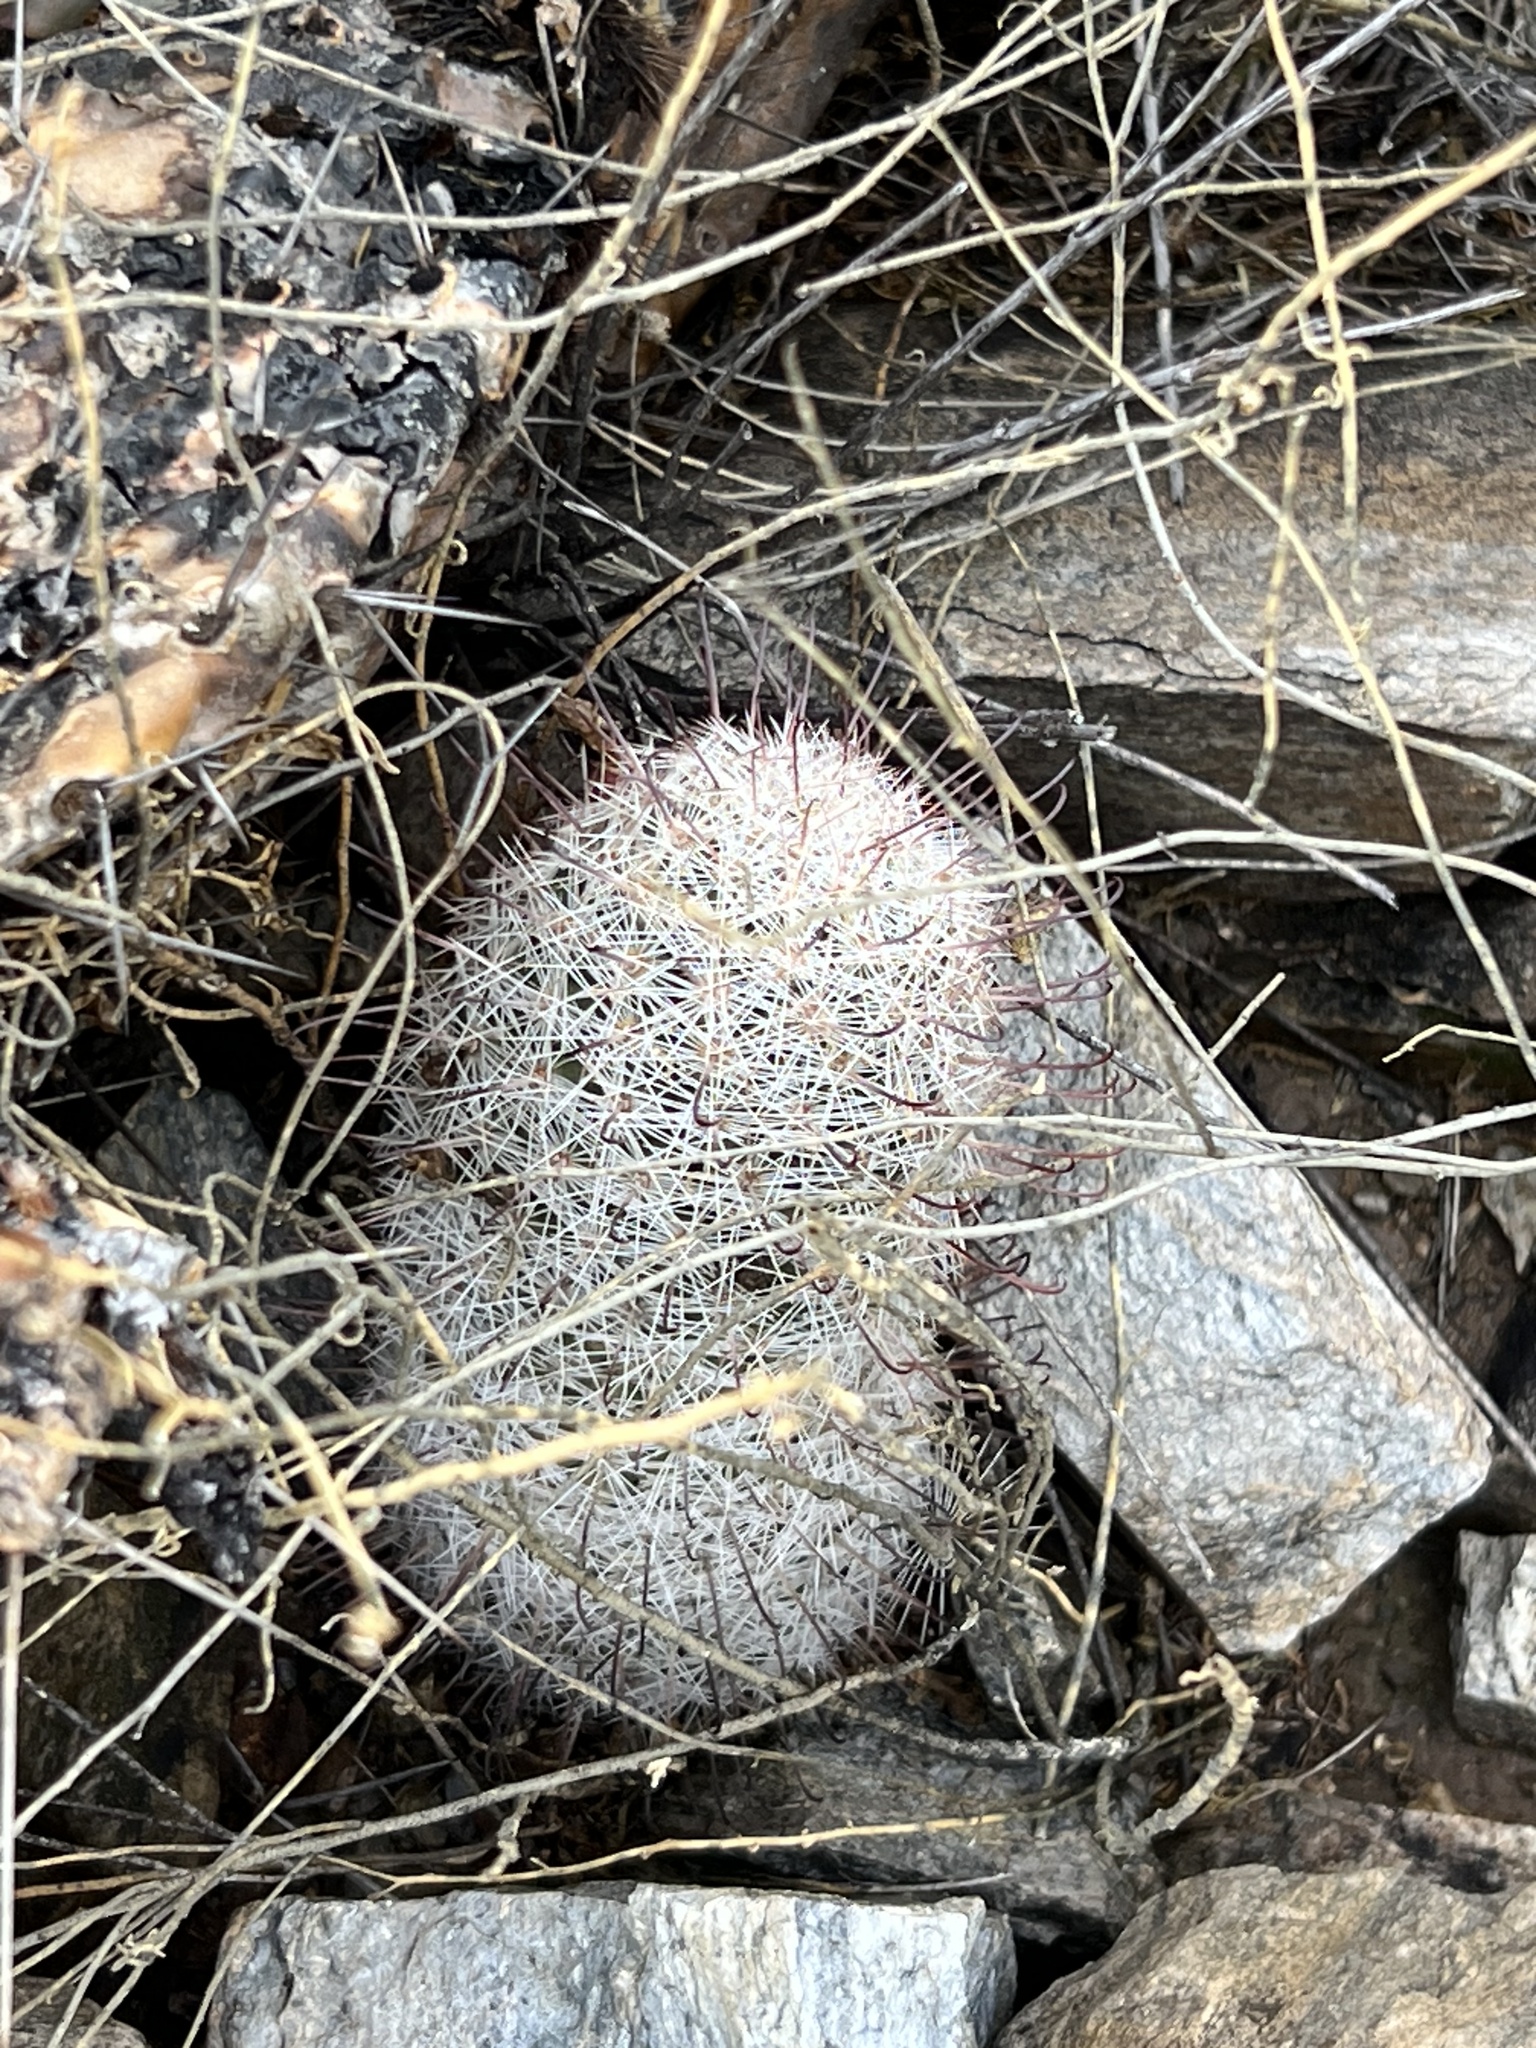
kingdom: Plantae
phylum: Tracheophyta
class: Magnoliopsida
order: Caryophyllales
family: Cactaceae
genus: Cochemiea
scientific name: Cochemiea grahamii
